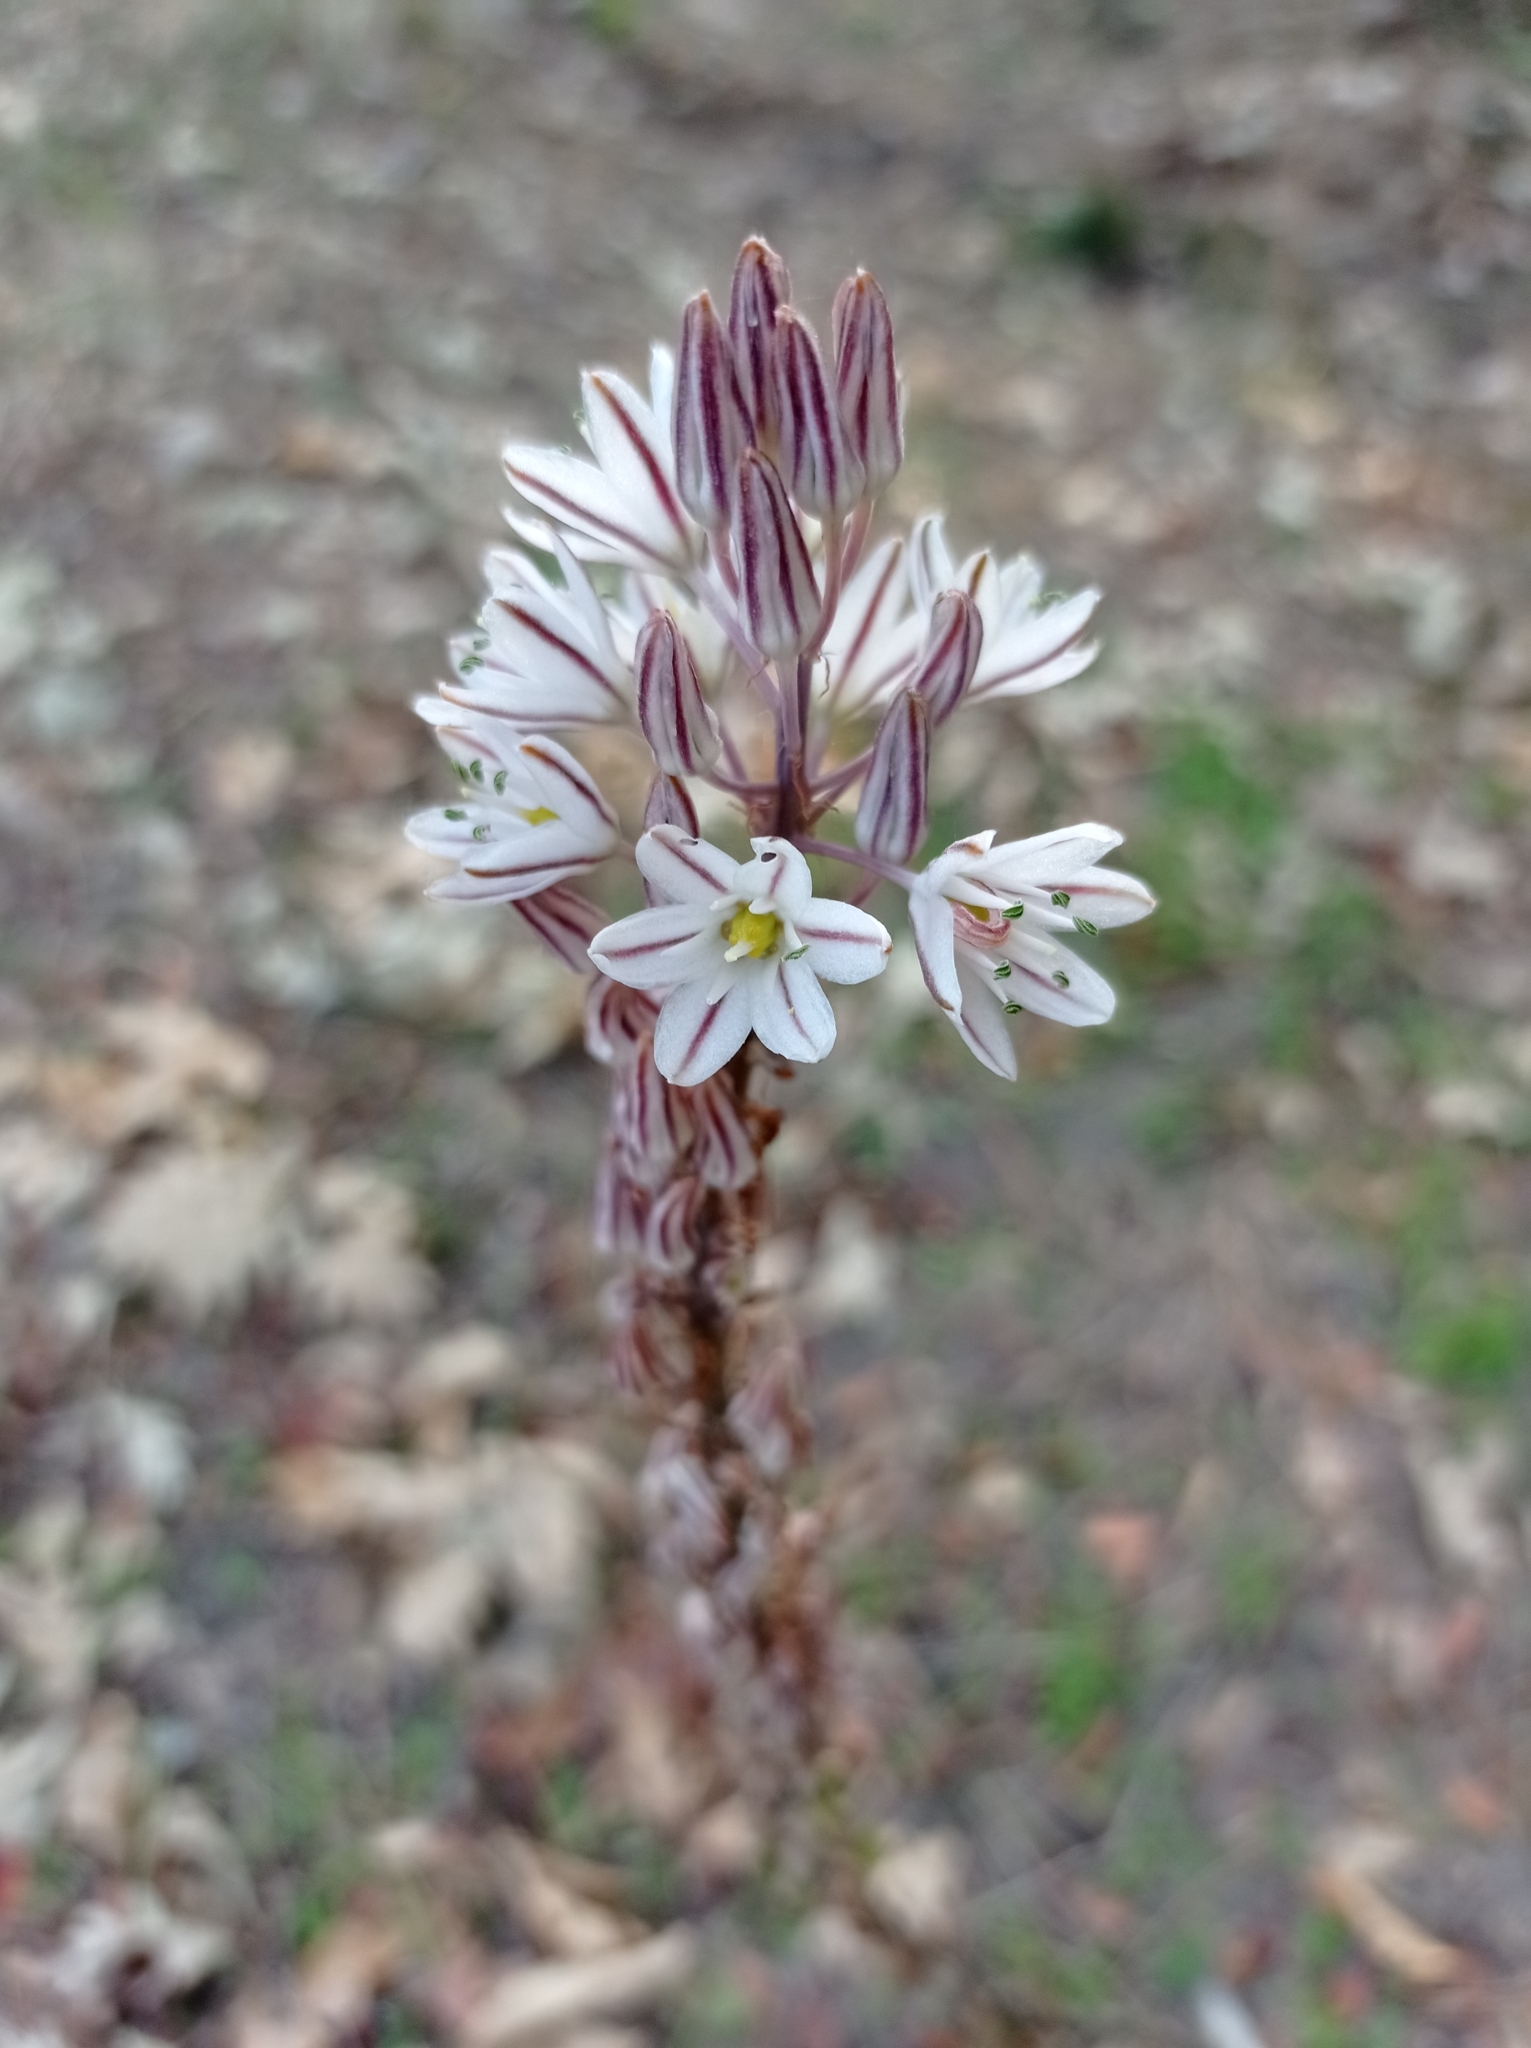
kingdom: Plantae
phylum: Tracheophyta
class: Liliopsida
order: Asparagales
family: Asparagaceae
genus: Drimia
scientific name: Drimia maritima
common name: Maritime squill
